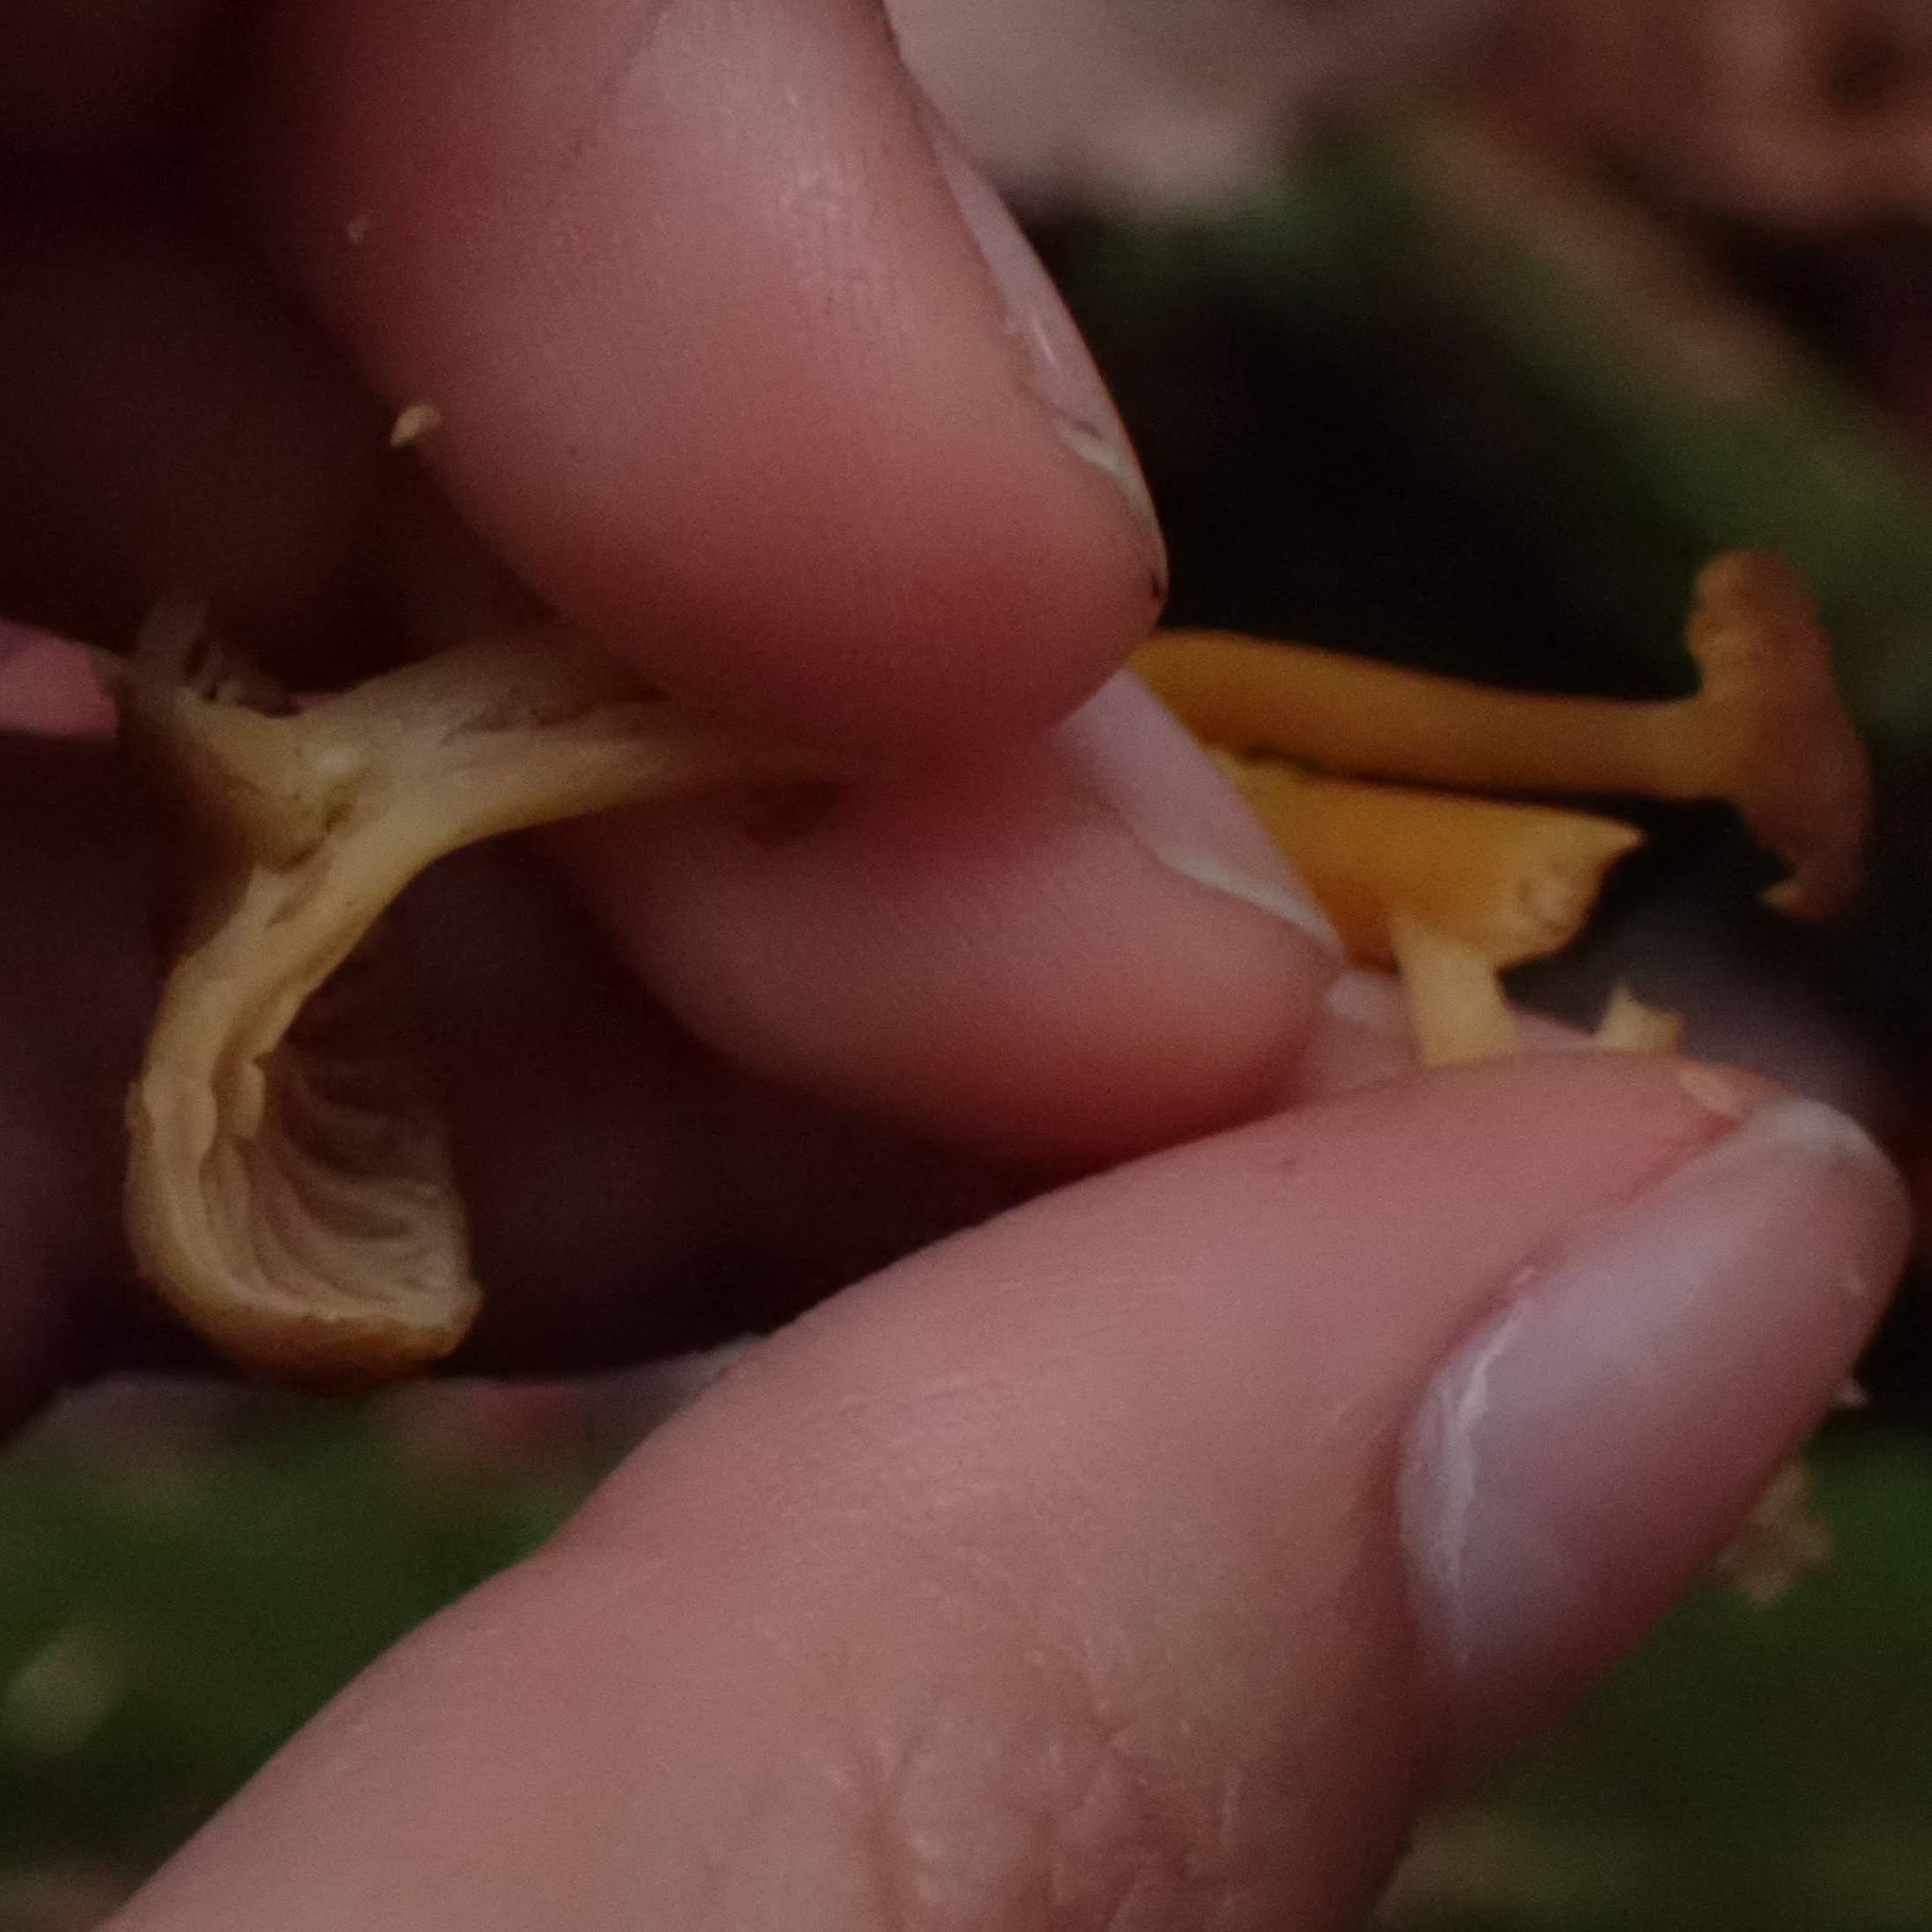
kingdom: Fungi
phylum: Basidiomycota
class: Agaricomycetes
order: Cantharellales
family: Hydnaceae
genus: Craterellus
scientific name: Craterellus tubaeformis
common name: Yellowfoot
